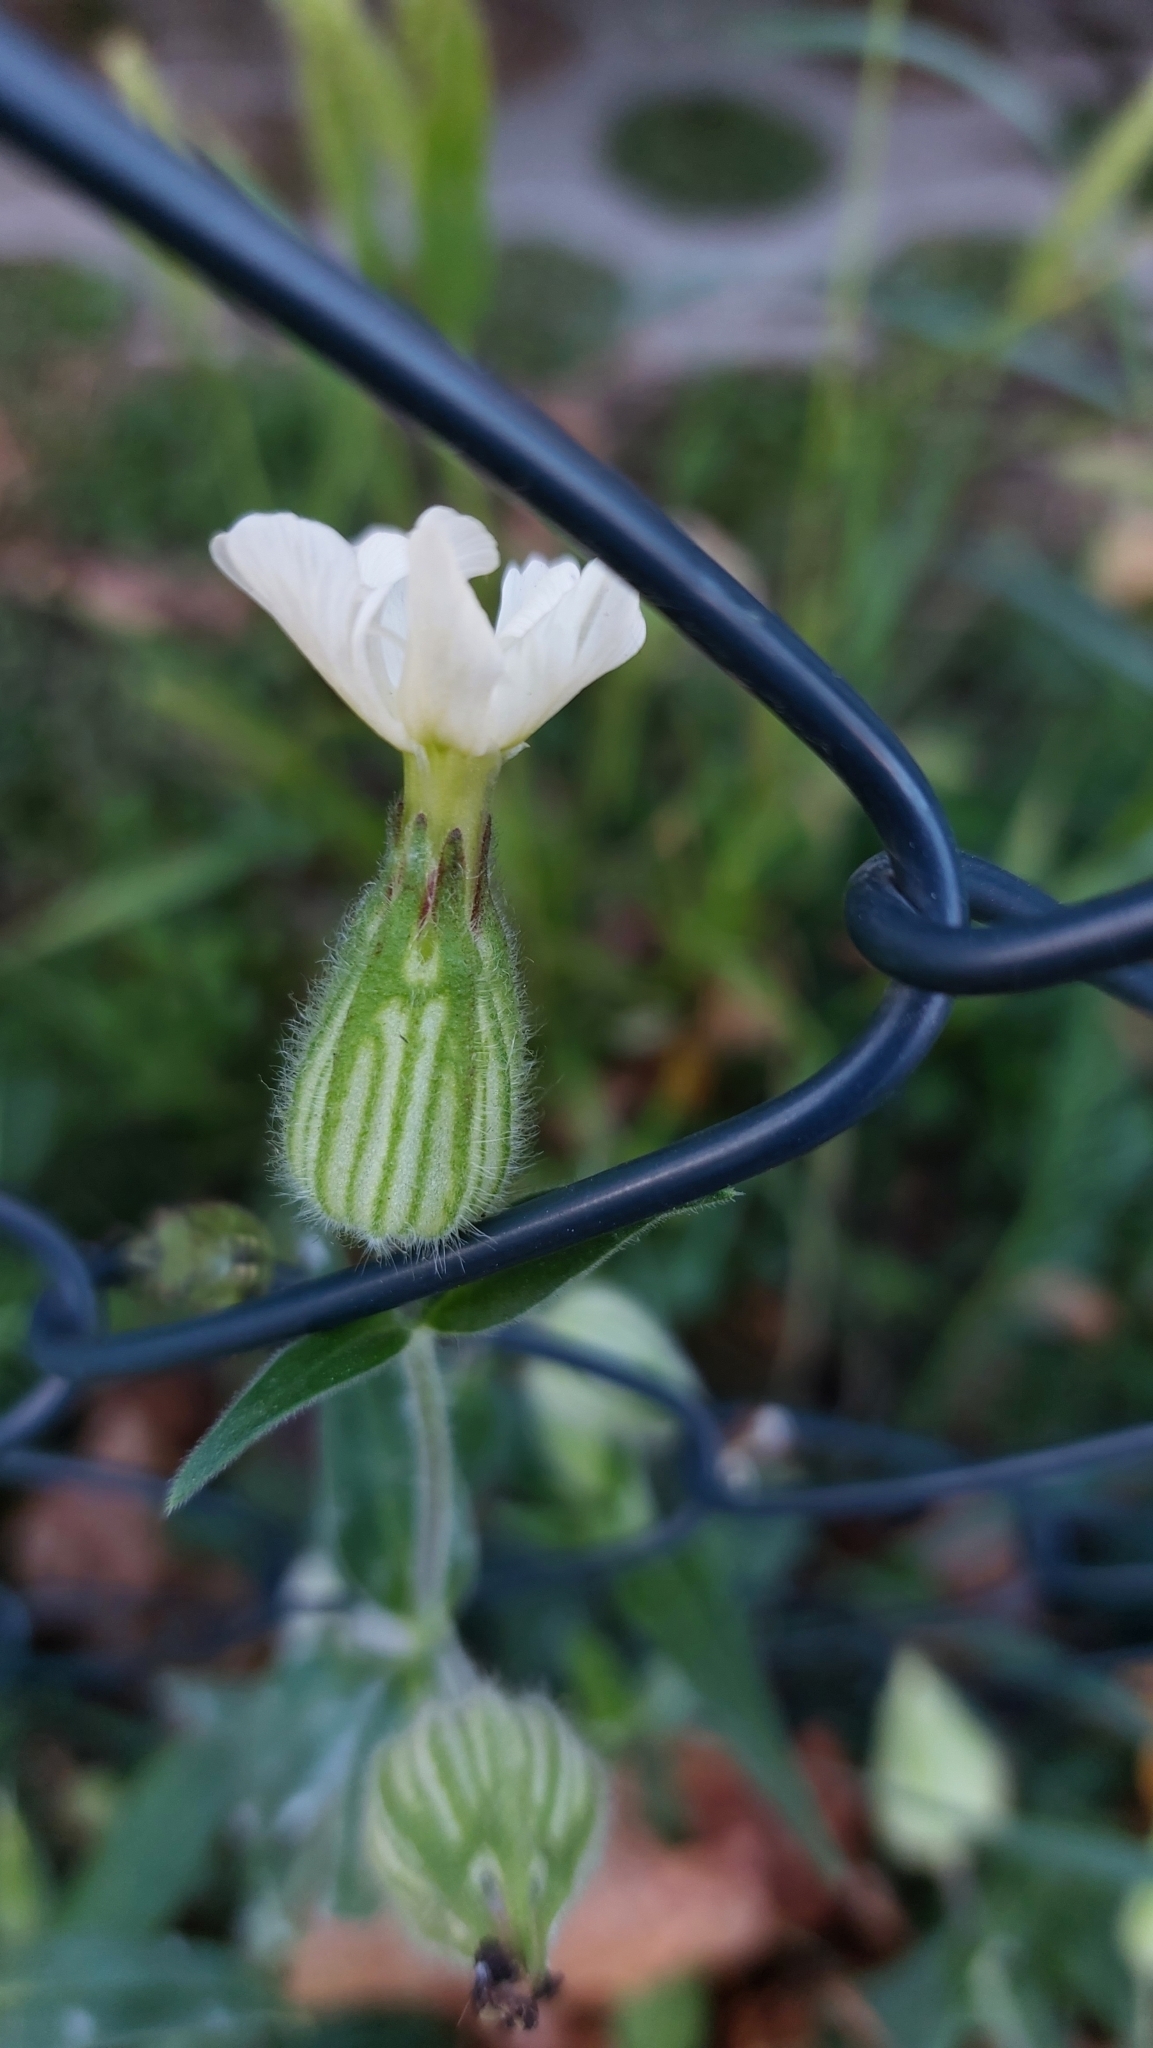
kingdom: Plantae
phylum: Tracheophyta
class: Magnoliopsida
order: Caryophyllales
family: Caryophyllaceae
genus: Silene
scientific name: Silene latifolia
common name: White campion
